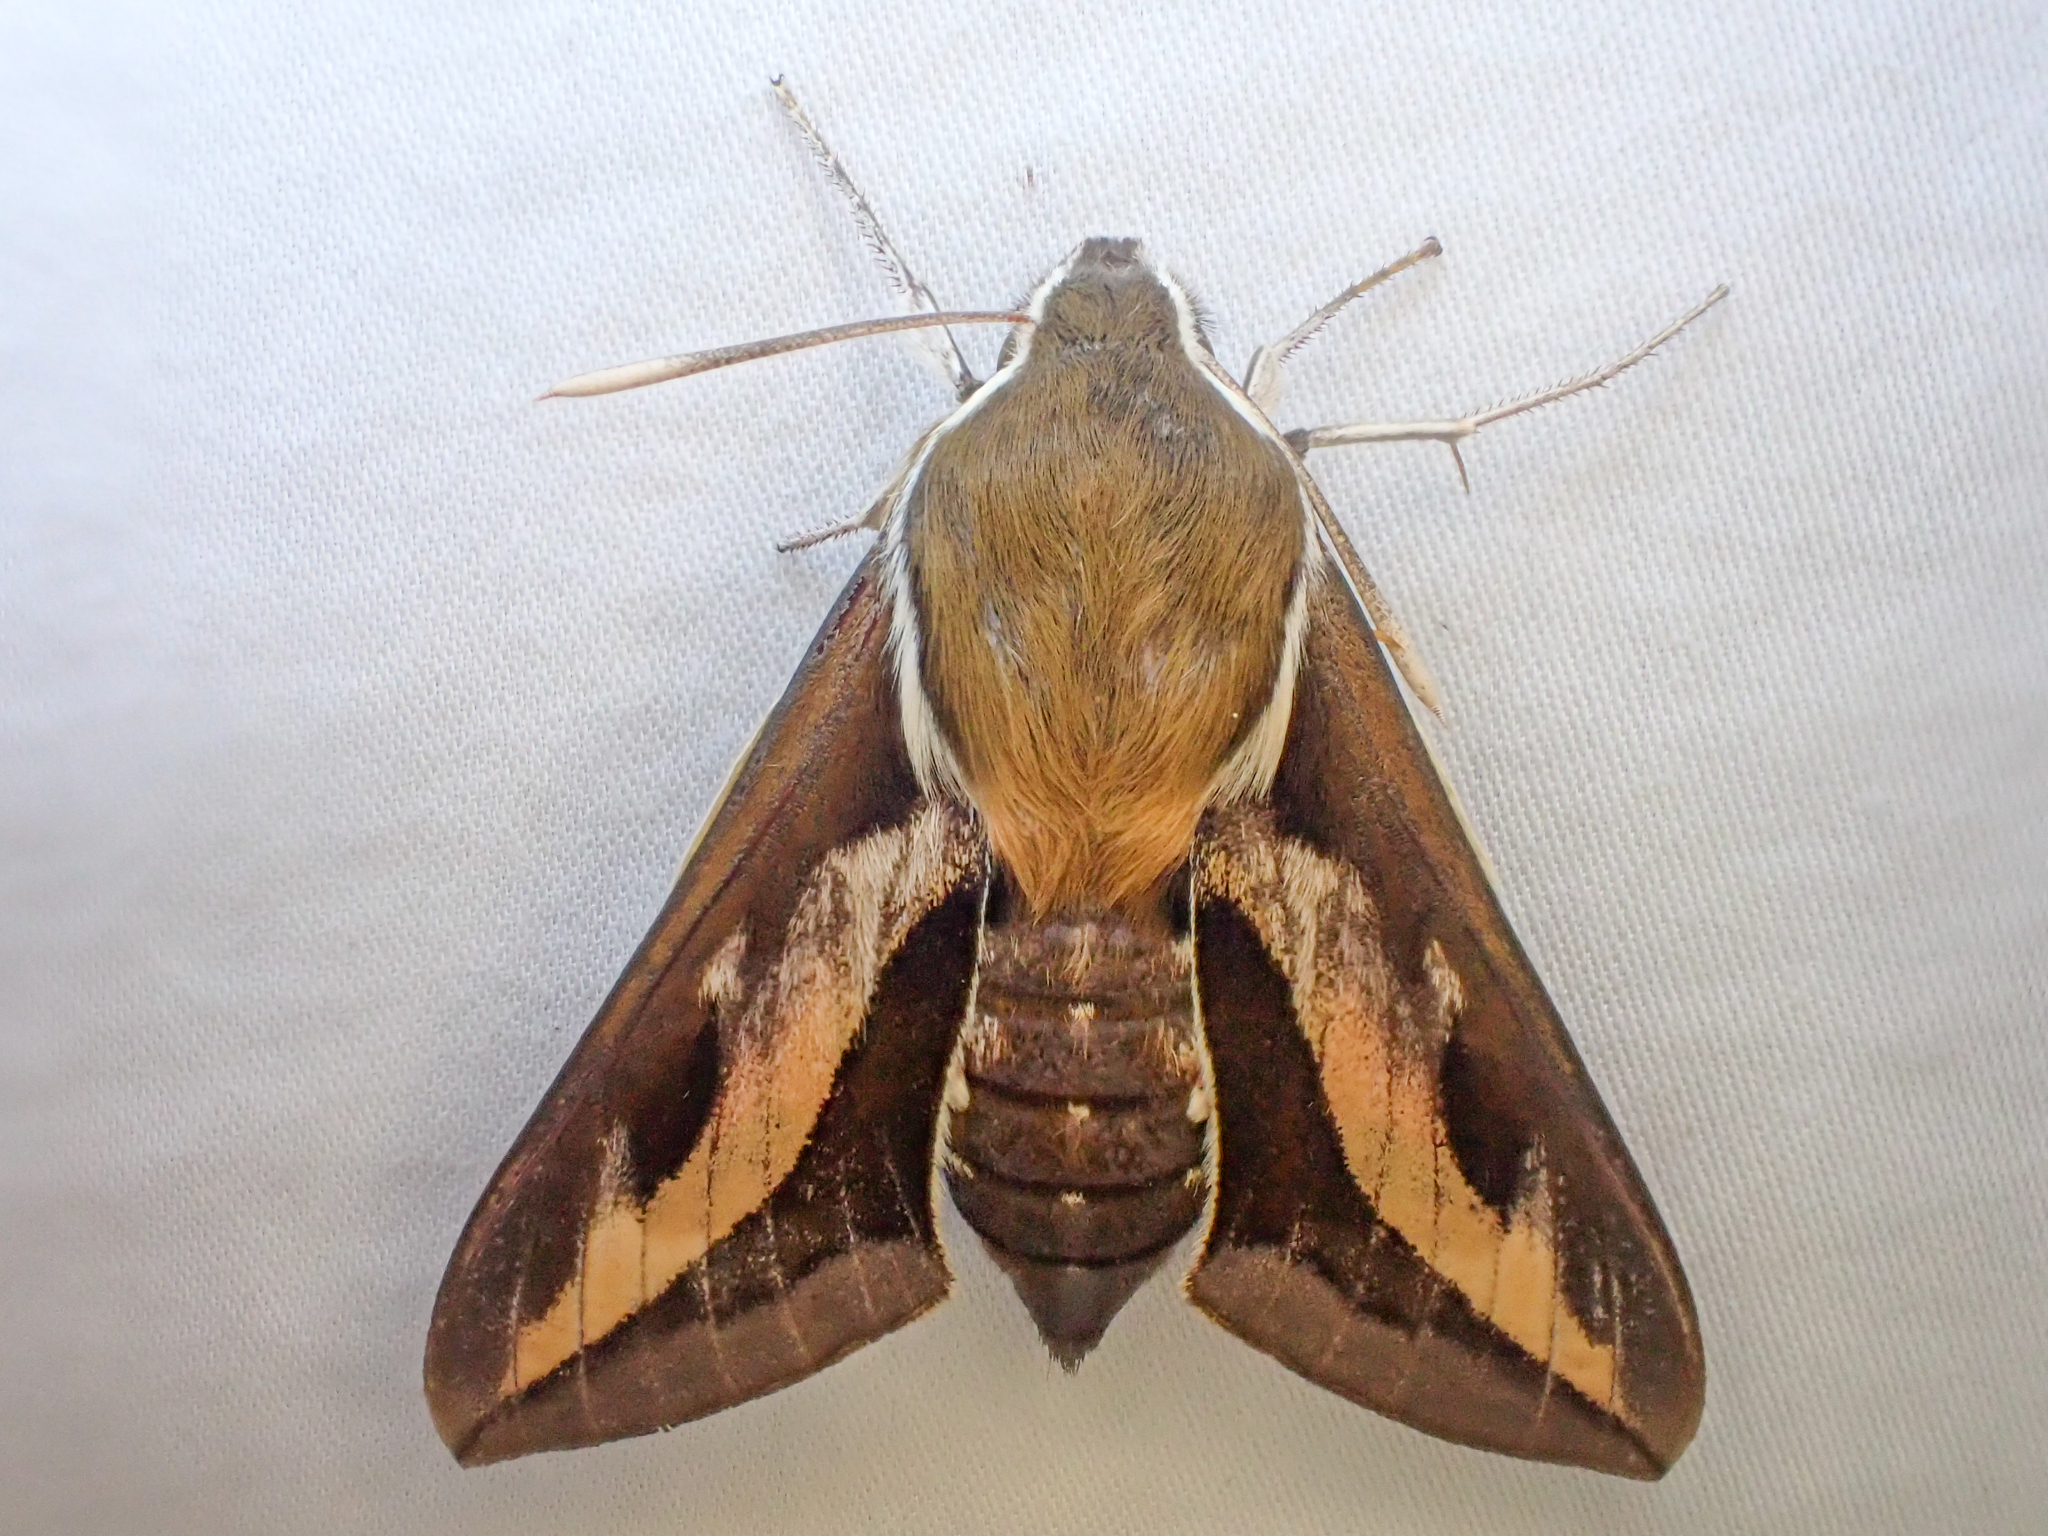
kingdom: Animalia
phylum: Arthropoda
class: Insecta
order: Lepidoptera
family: Sphingidae
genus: Hyles
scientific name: Hyles gallii
